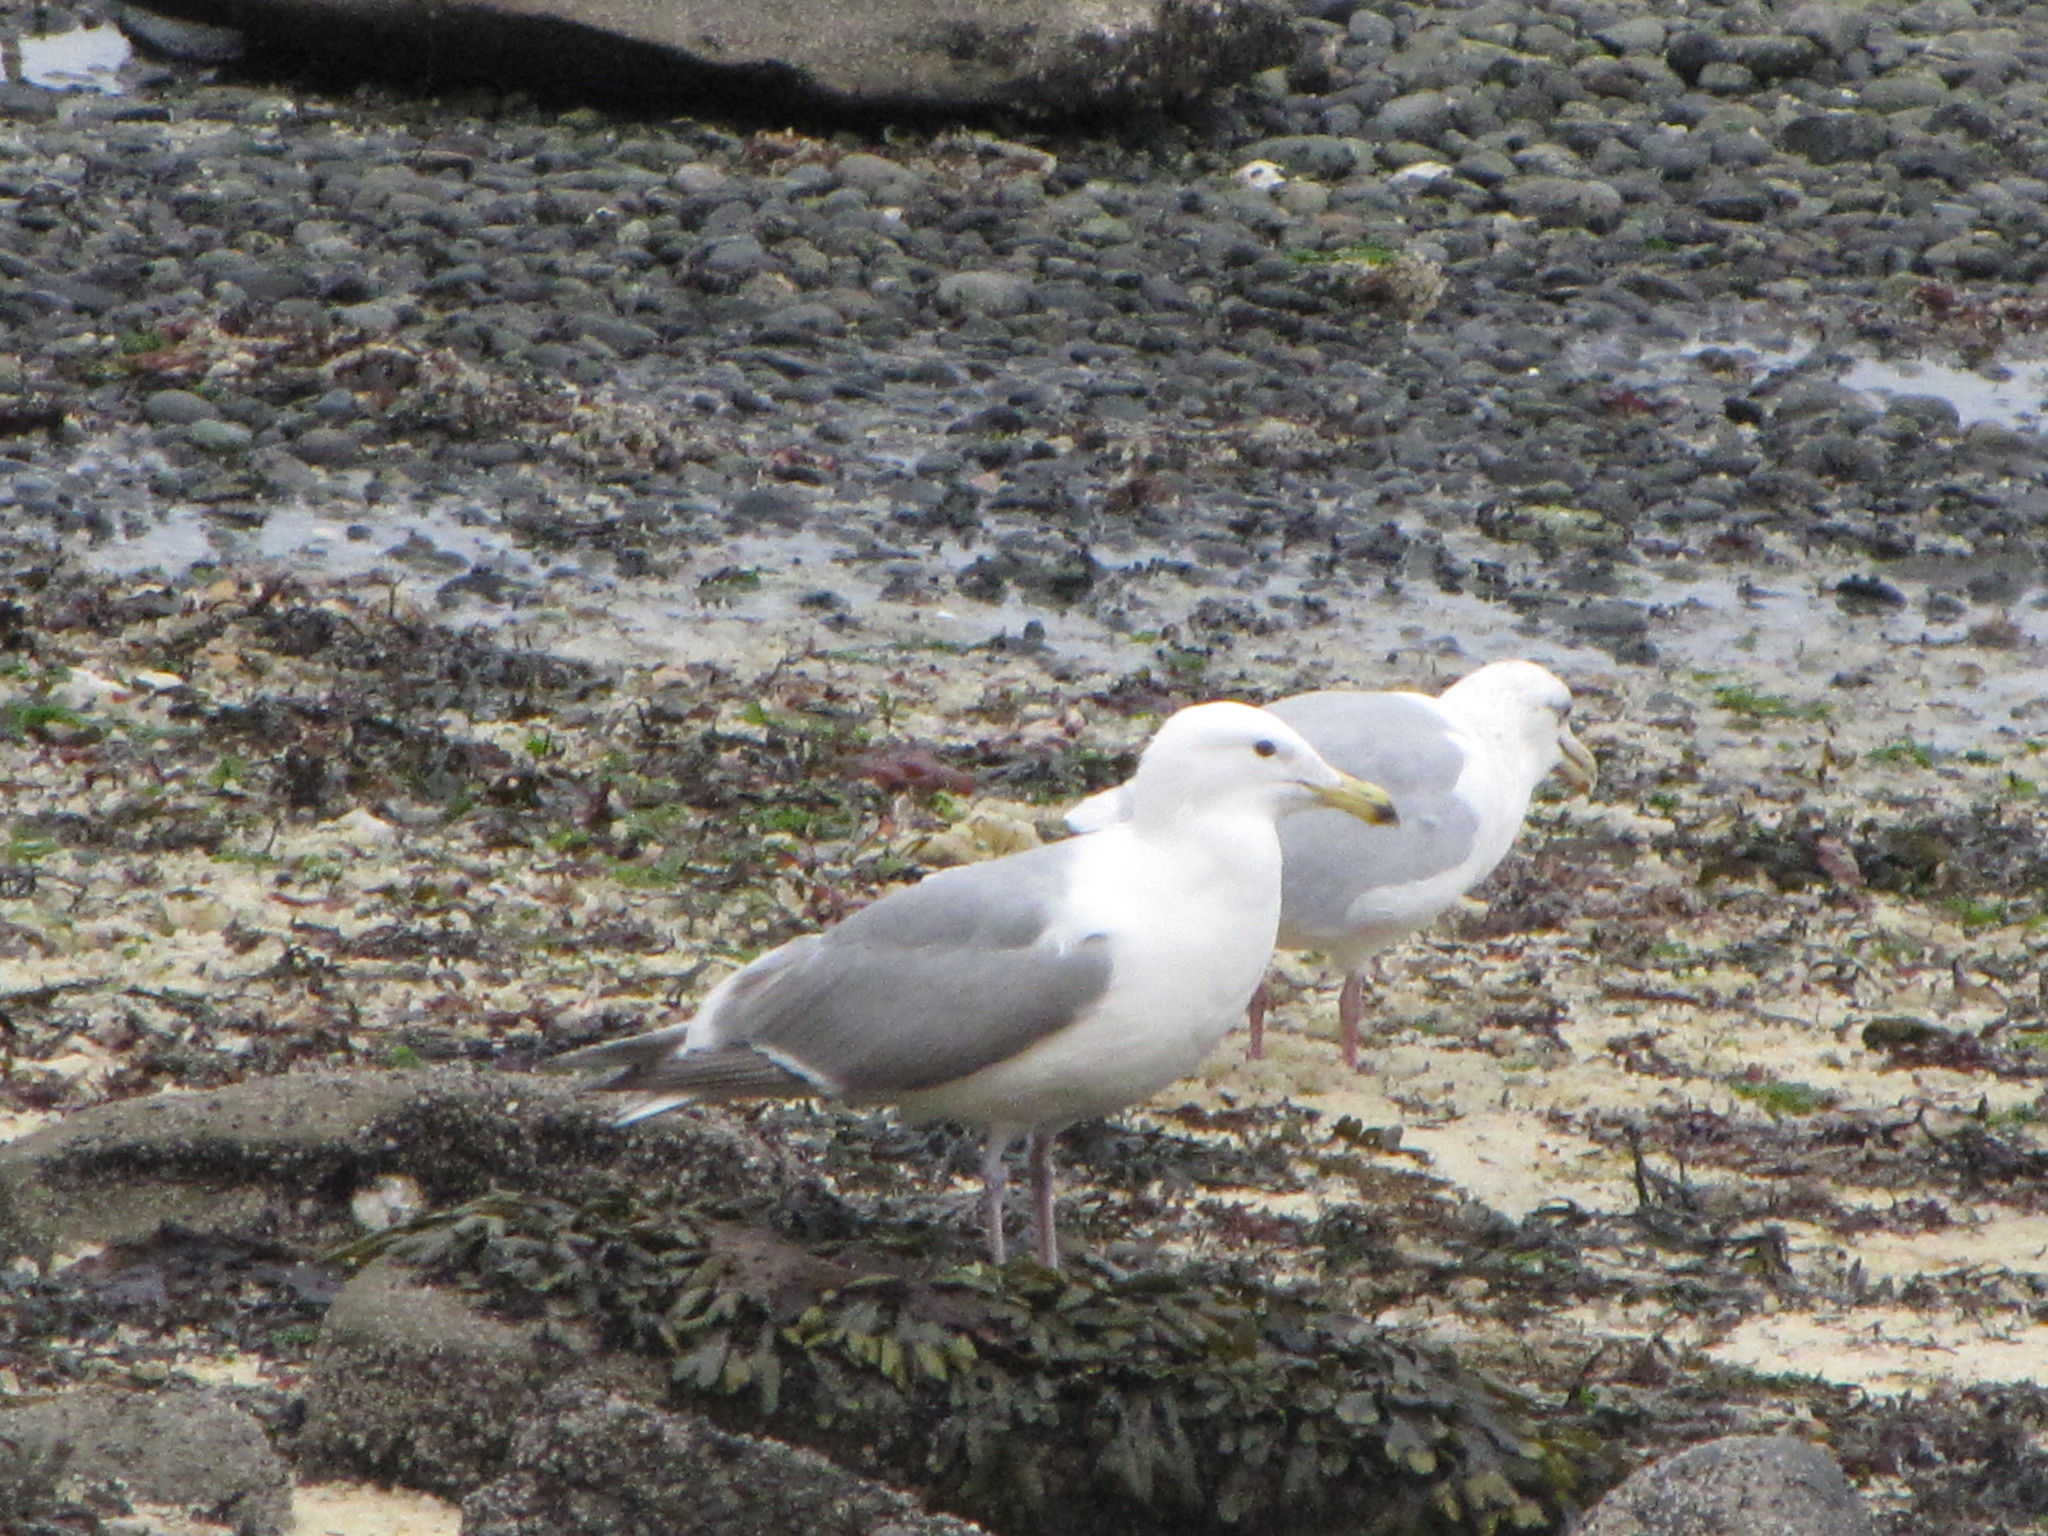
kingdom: Animalia
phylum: Chordata
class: Aves
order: Charadriiformes
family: Laridae
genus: Larus
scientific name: Larus
